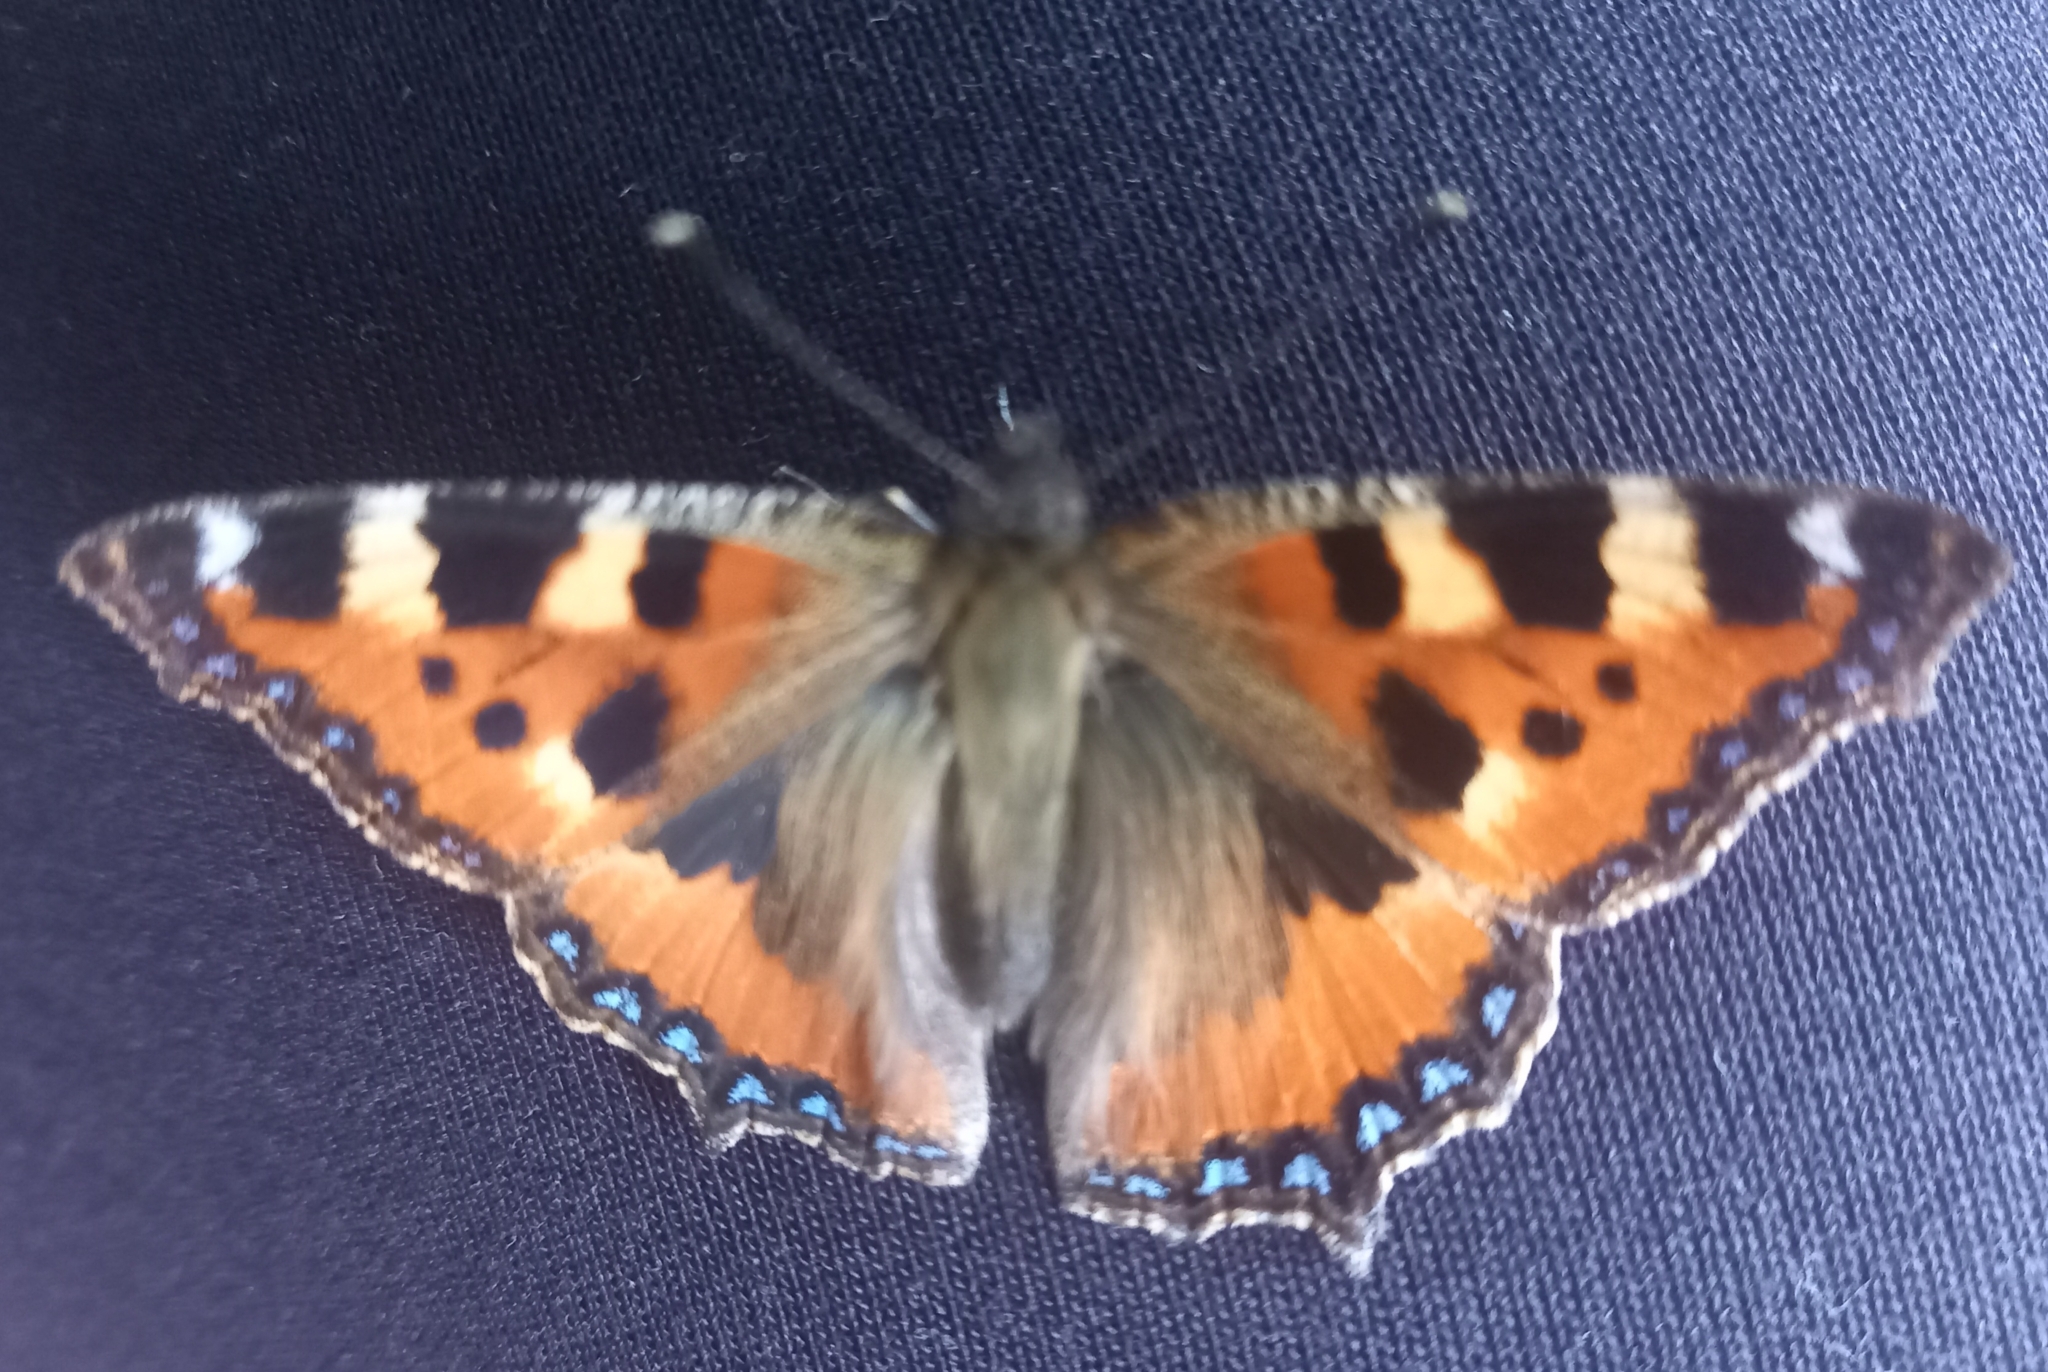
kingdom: Animalia
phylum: Arthropoda
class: Insecta
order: Lepidoptera
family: Nymphalidae
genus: Aglais
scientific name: Aglais urticae
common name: Small tortoiseshell
